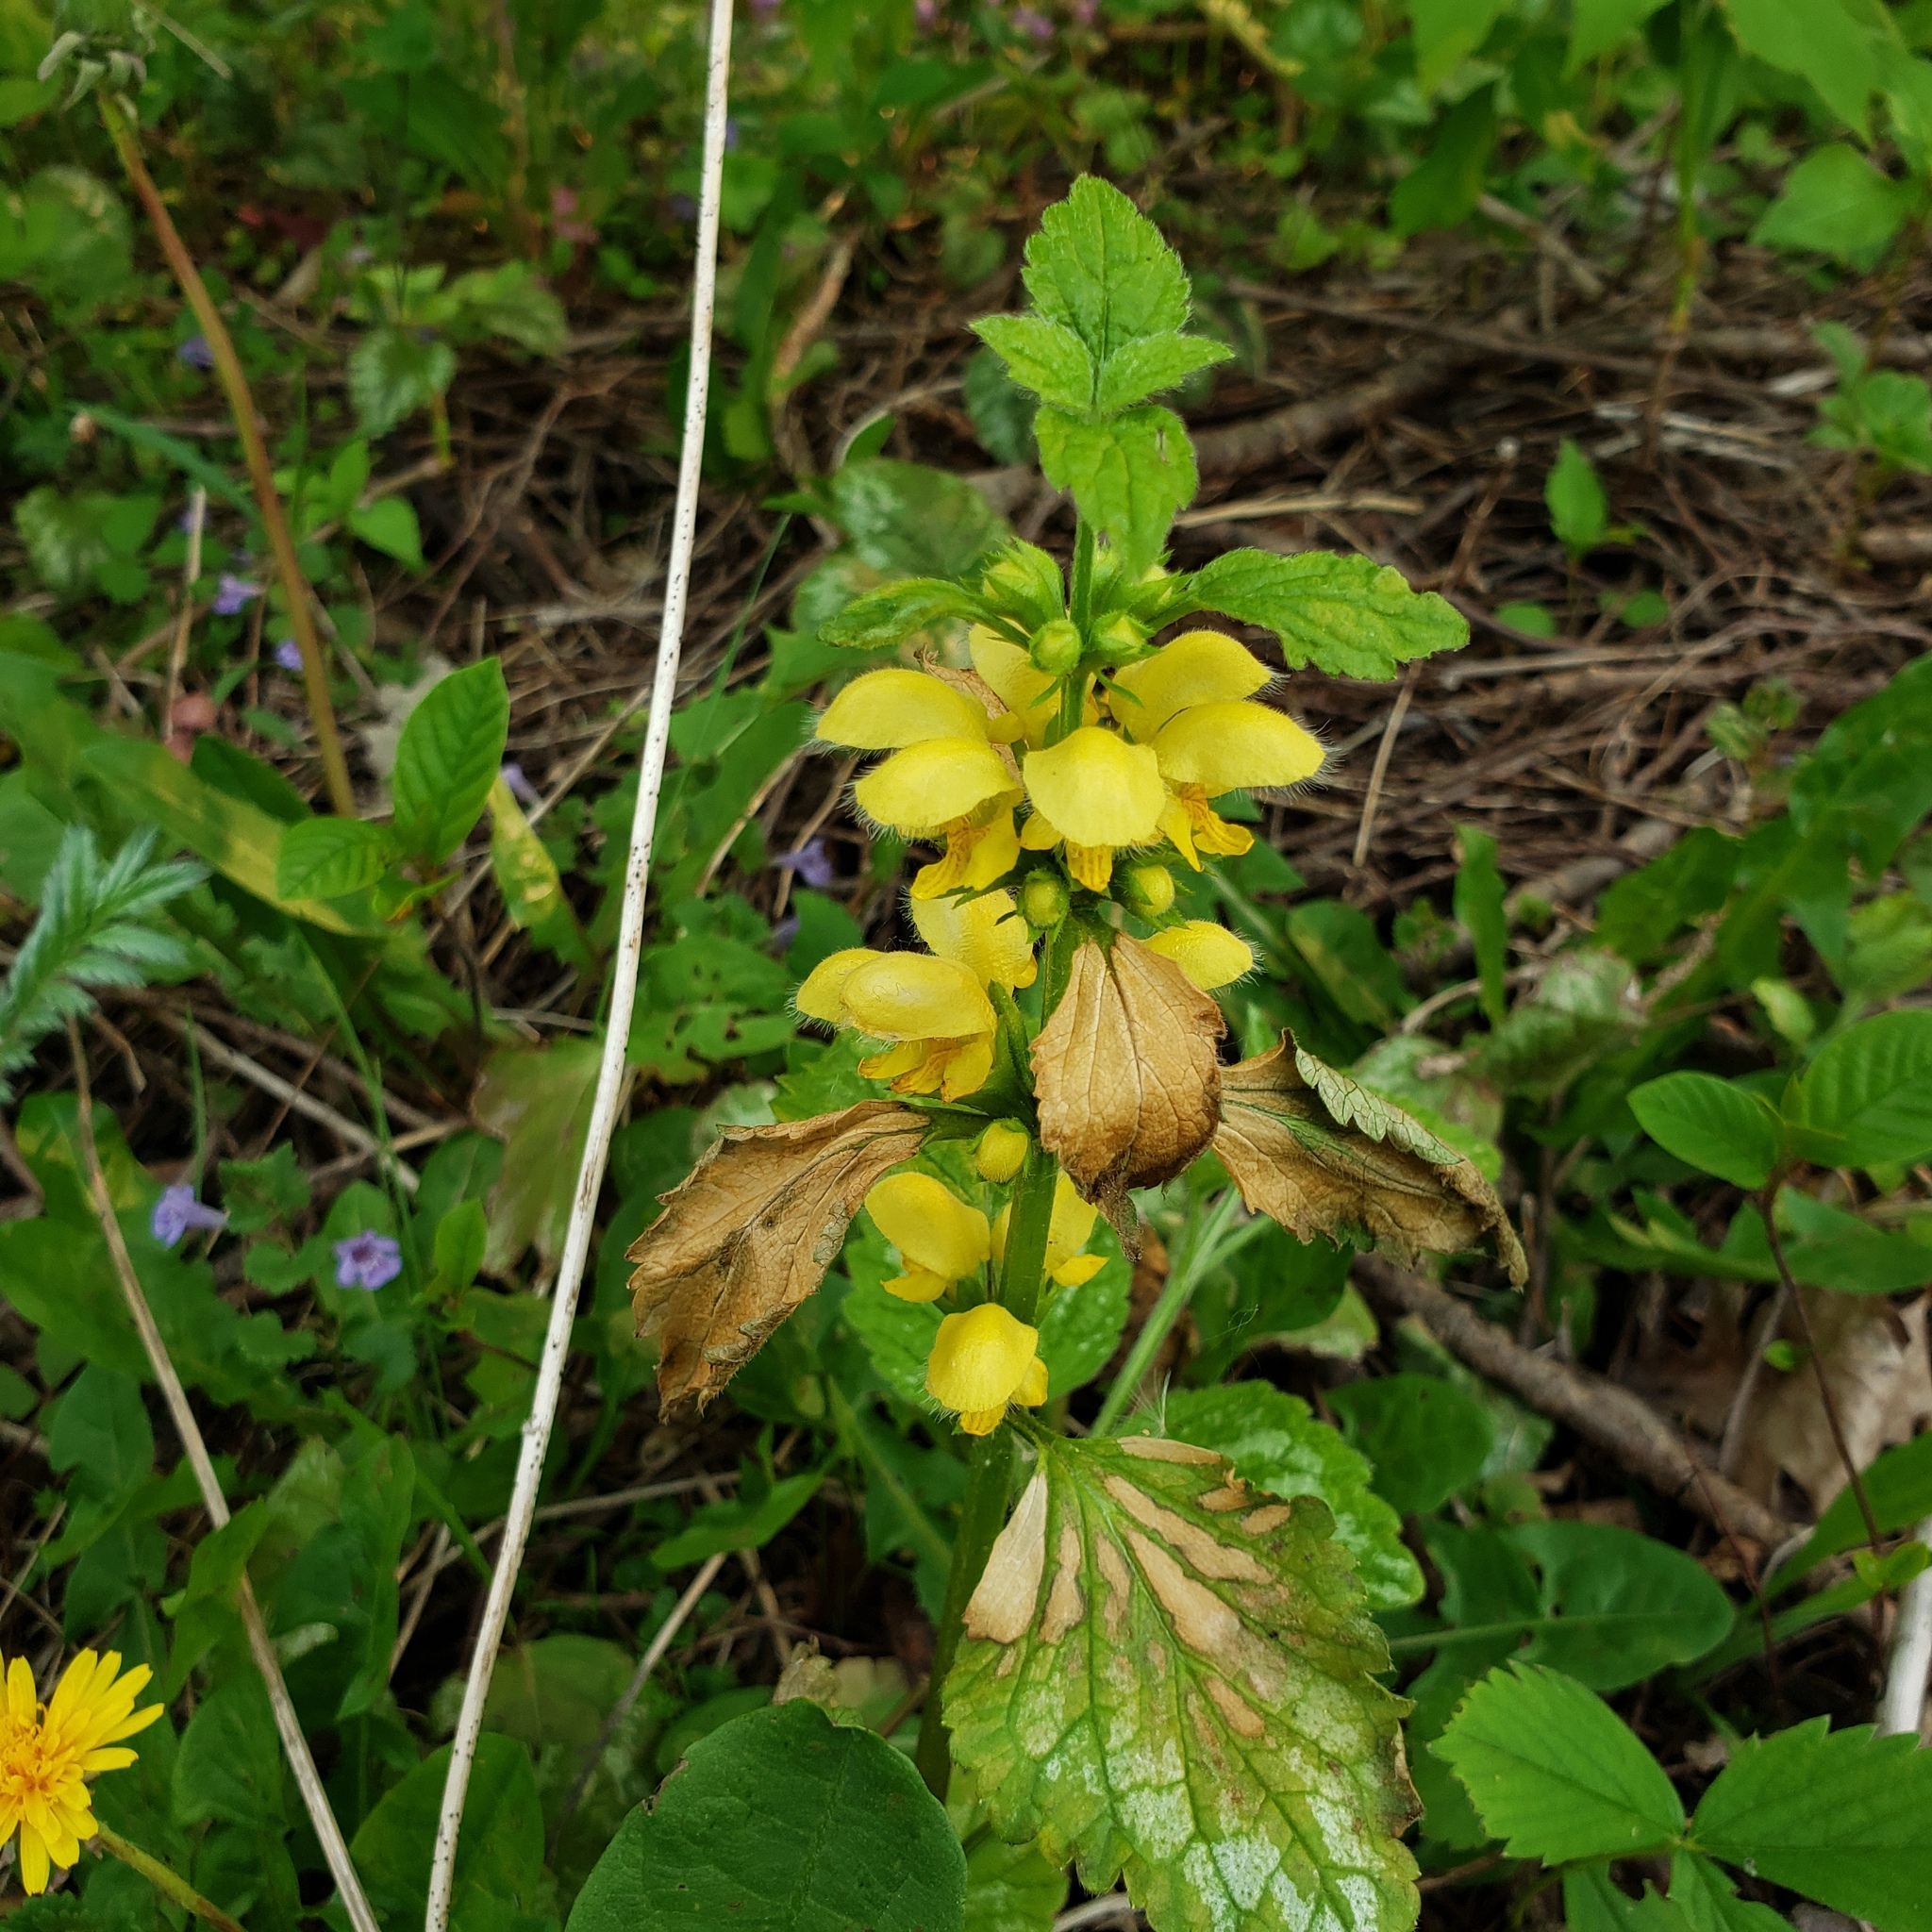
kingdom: Plantae
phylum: Tracheophyta
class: Magnoliopsida
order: Lamiales
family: Lamiaceae
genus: Lamium
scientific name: Lamium galeobdolon
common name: Yellow archangel
